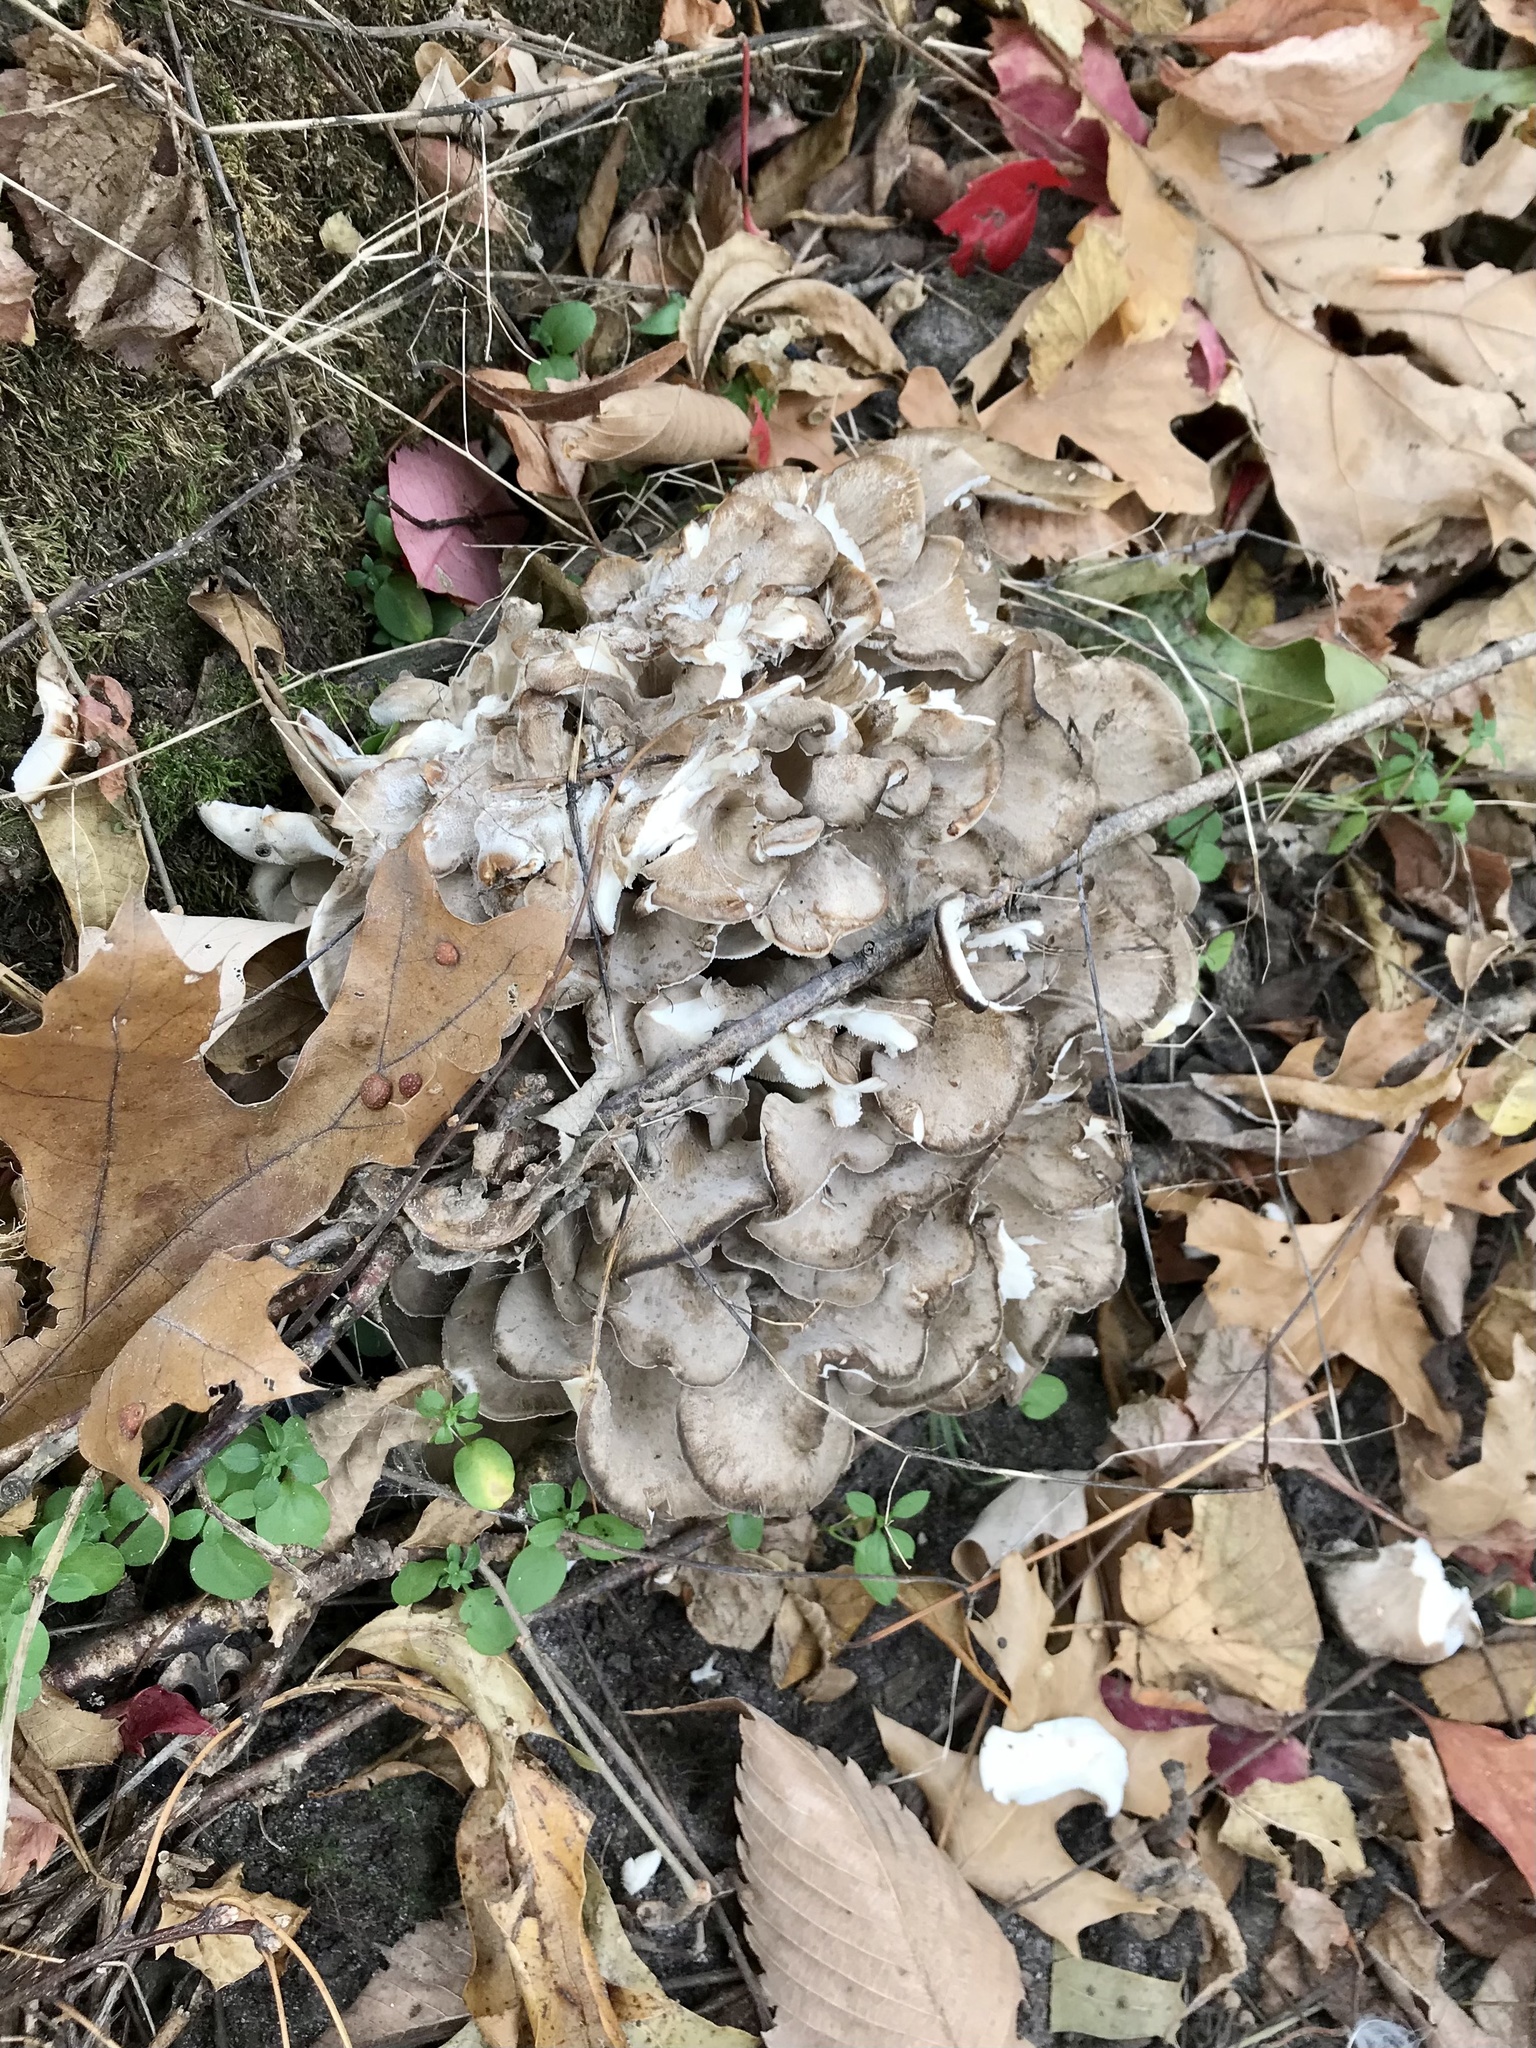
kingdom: Fungi
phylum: Basidiomycota
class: Agaricomycetes
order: Polyporales
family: Grifolaceae
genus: Grifola
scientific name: Grifola frondosa
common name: Hen of the woods
